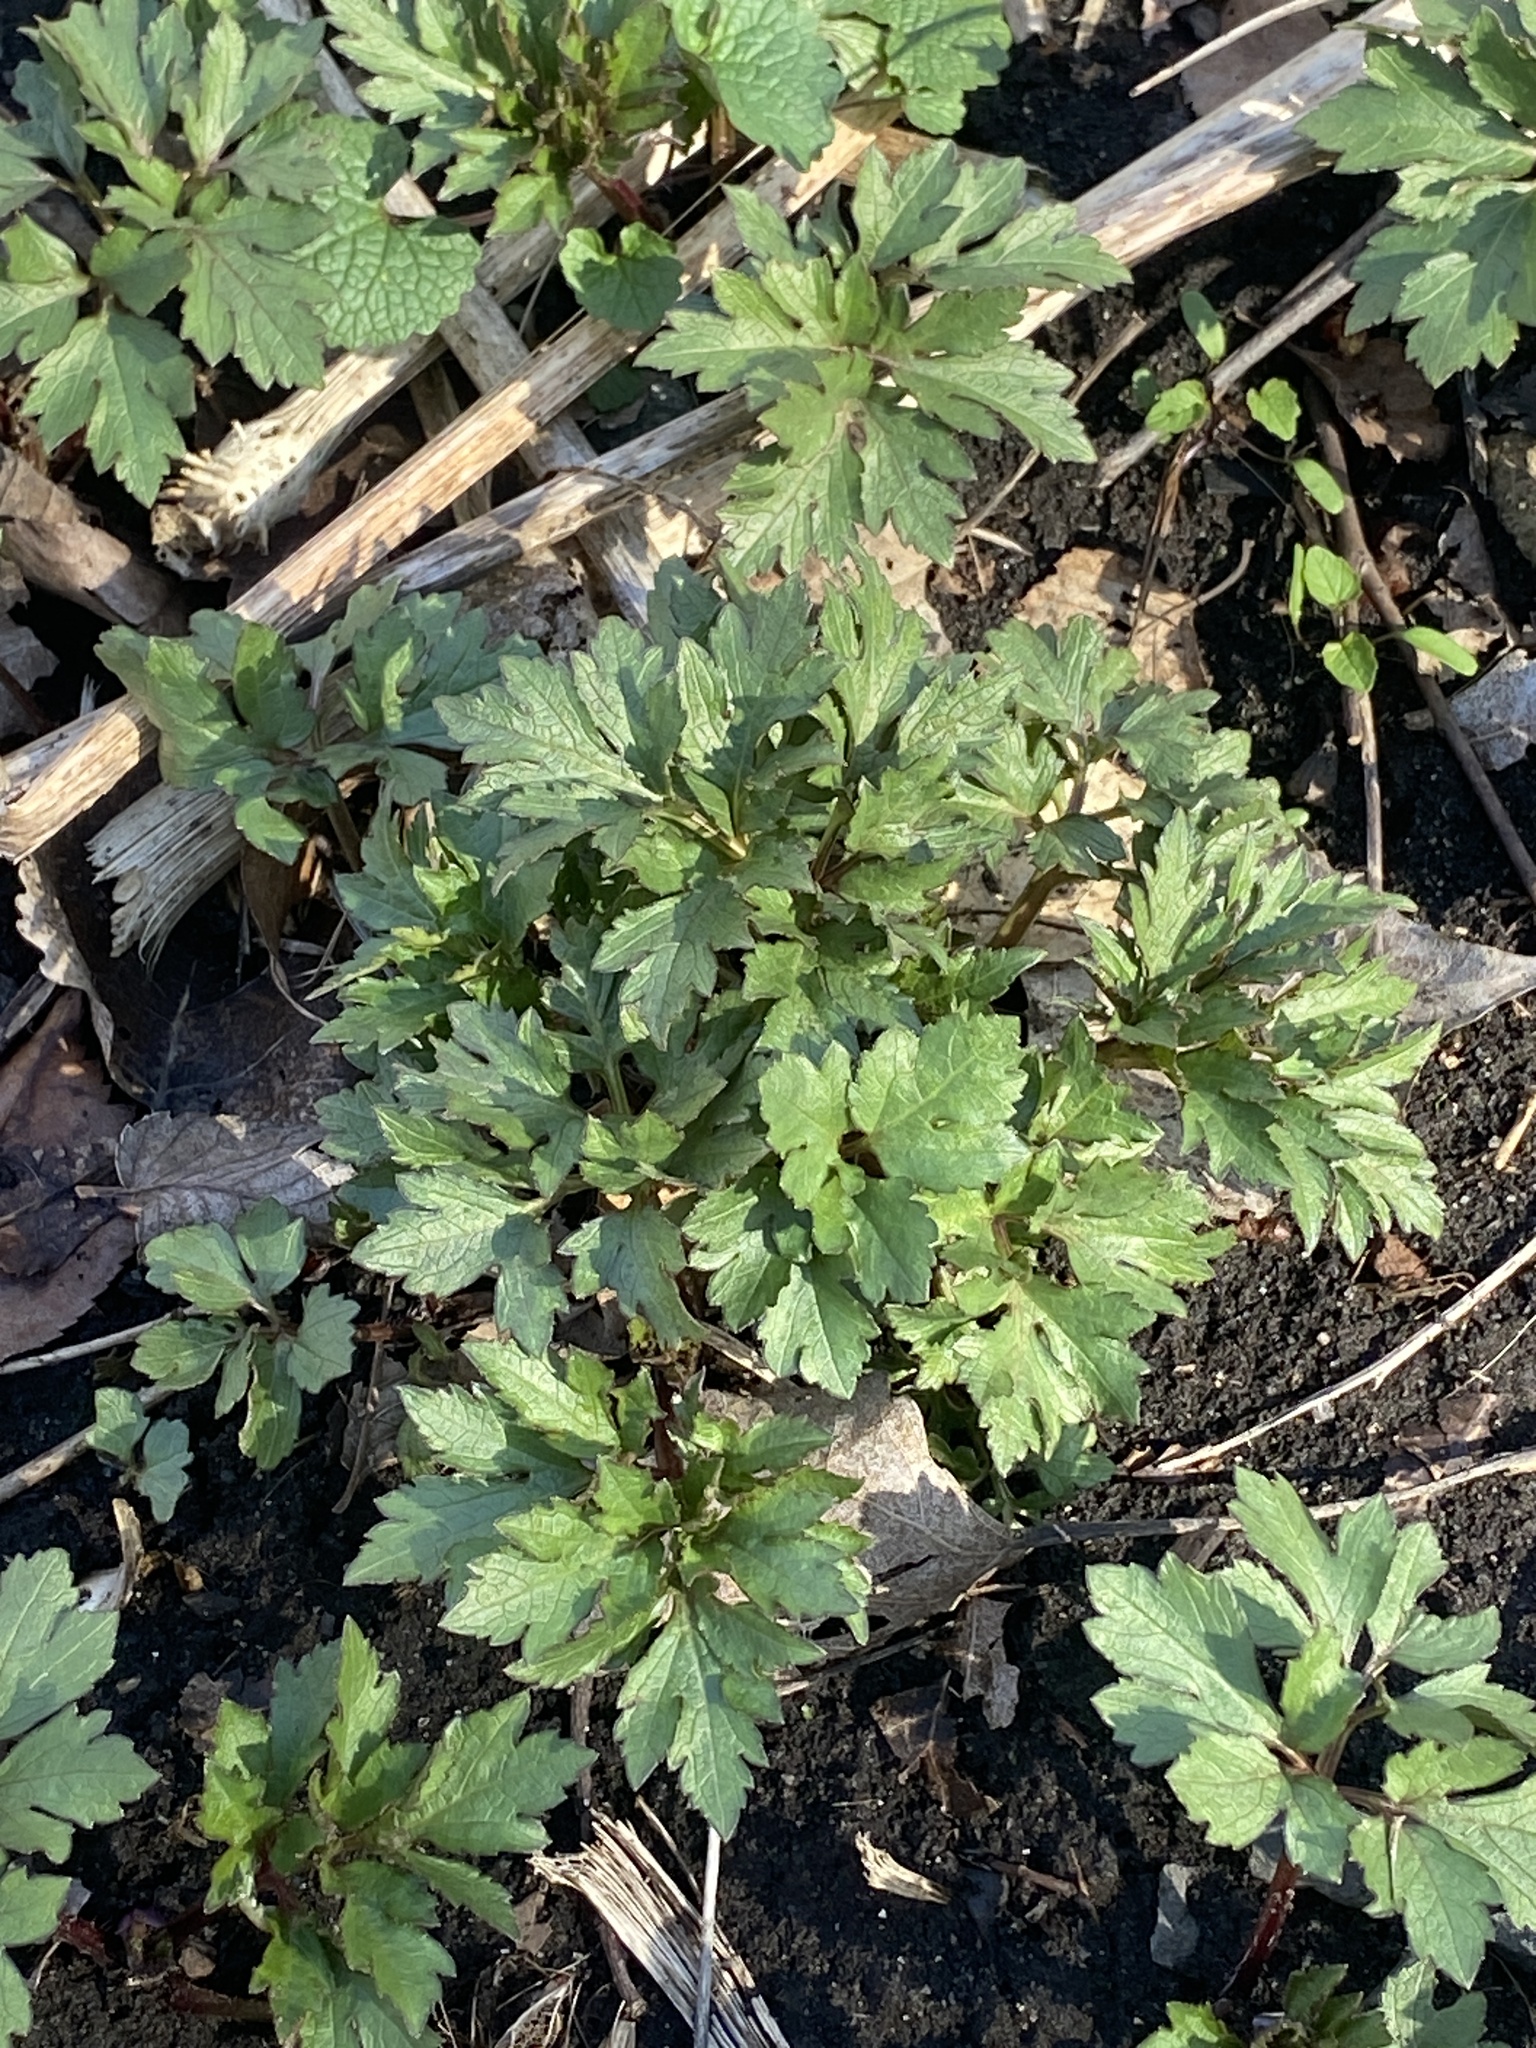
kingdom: Plantae
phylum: Tracheophyta
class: Magnoliopsida
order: Asterales
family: Asteraceae
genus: Rudbeckia
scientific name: Rudbeckia laciniata
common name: Coneflower
